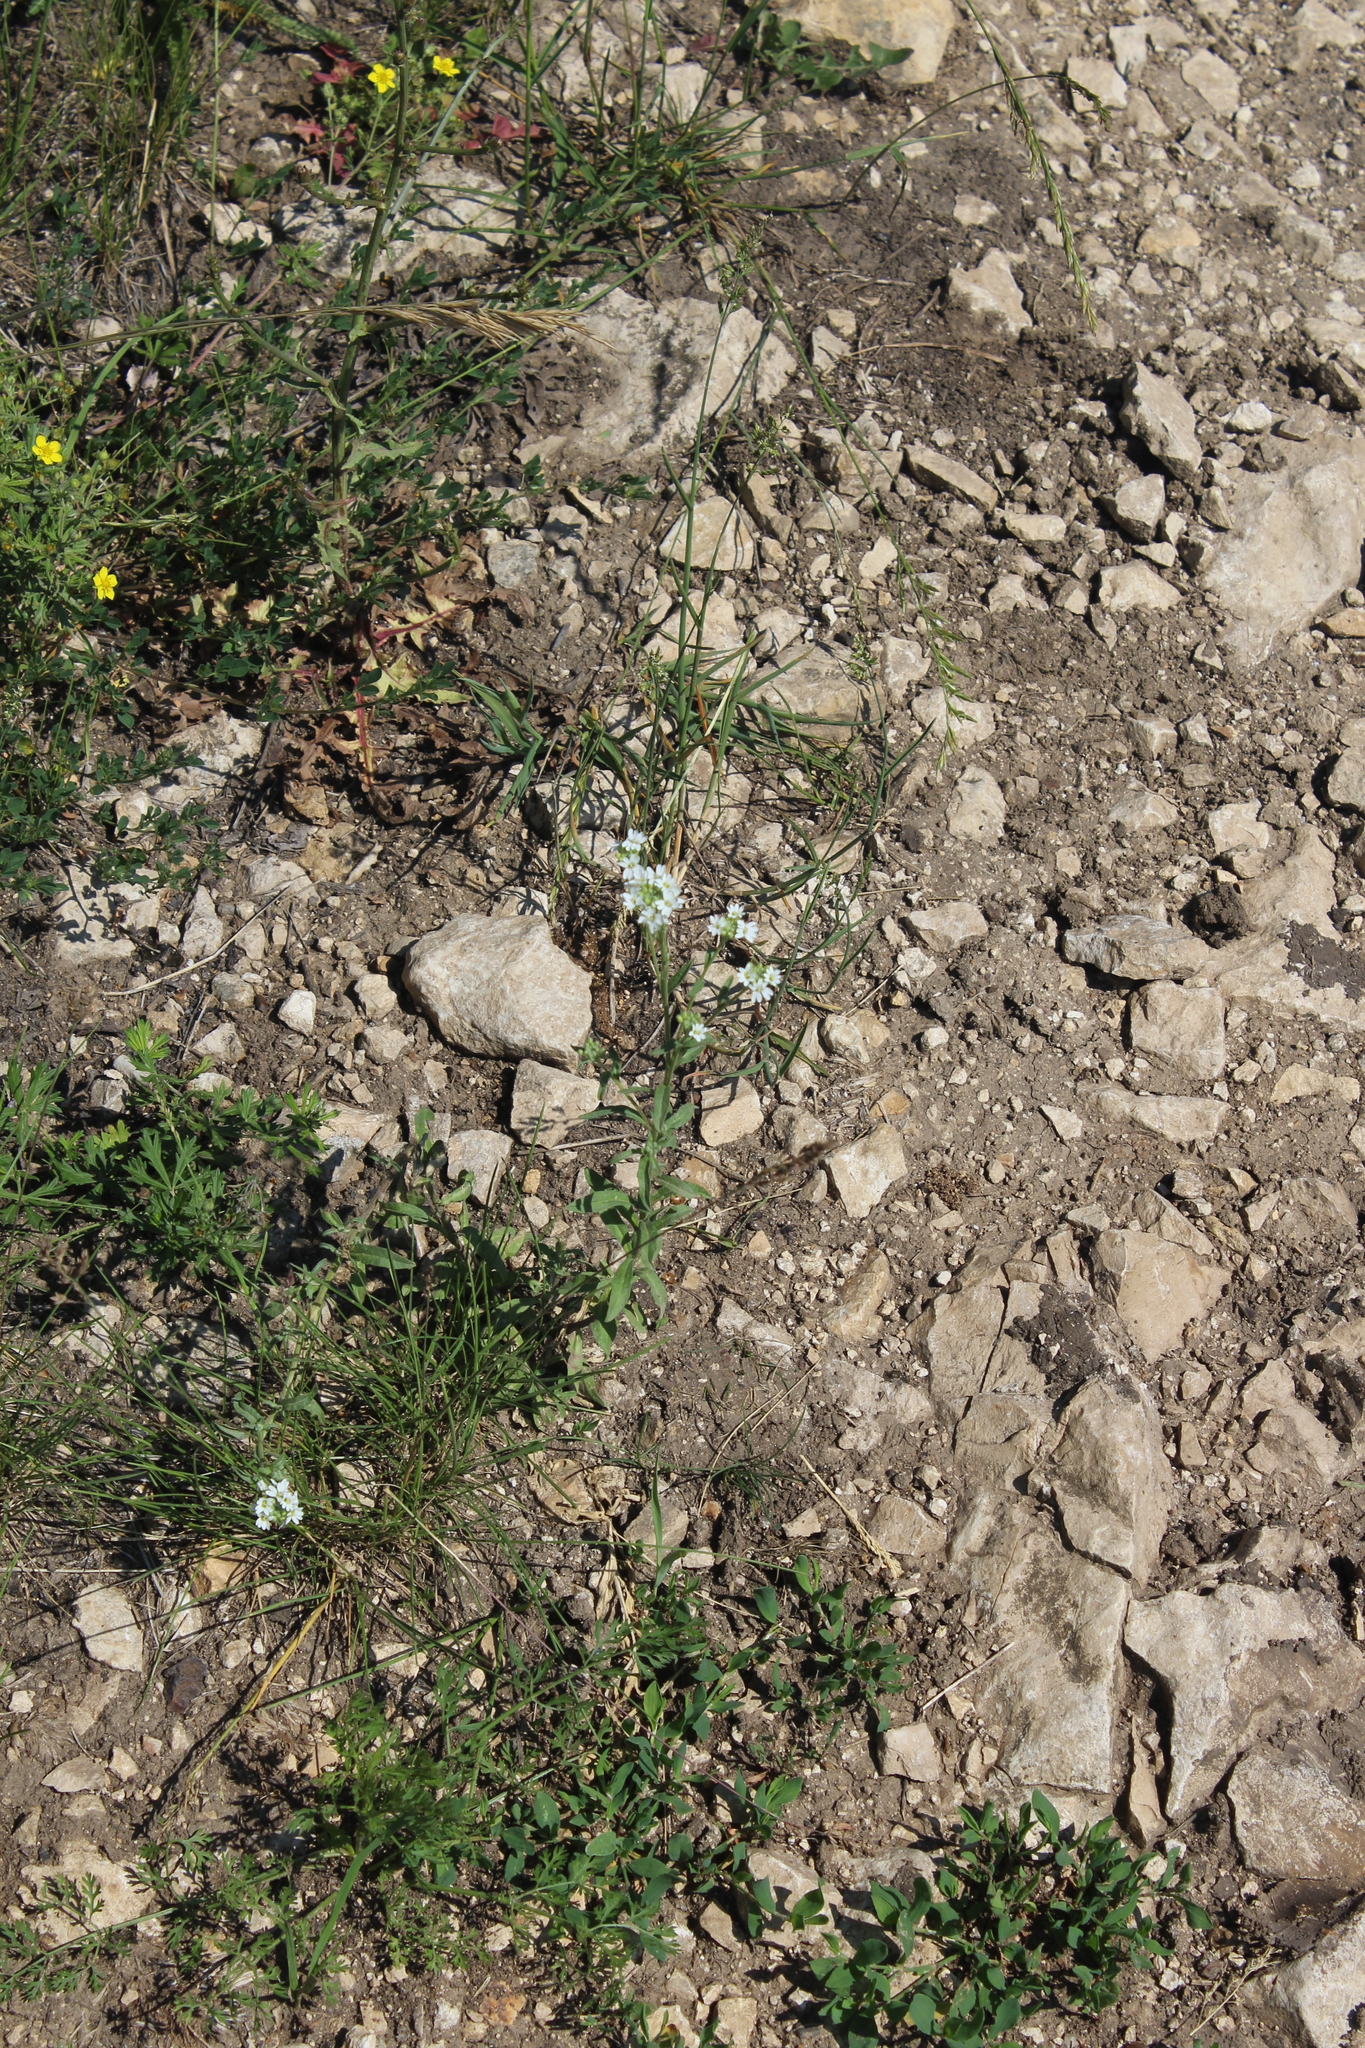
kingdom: Plantae
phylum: Tracheophyta
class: Magnoliopsida
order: Brassicales
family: Brassicaceae
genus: Berteroa
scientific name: Berteroa incana
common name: Hoary alison
